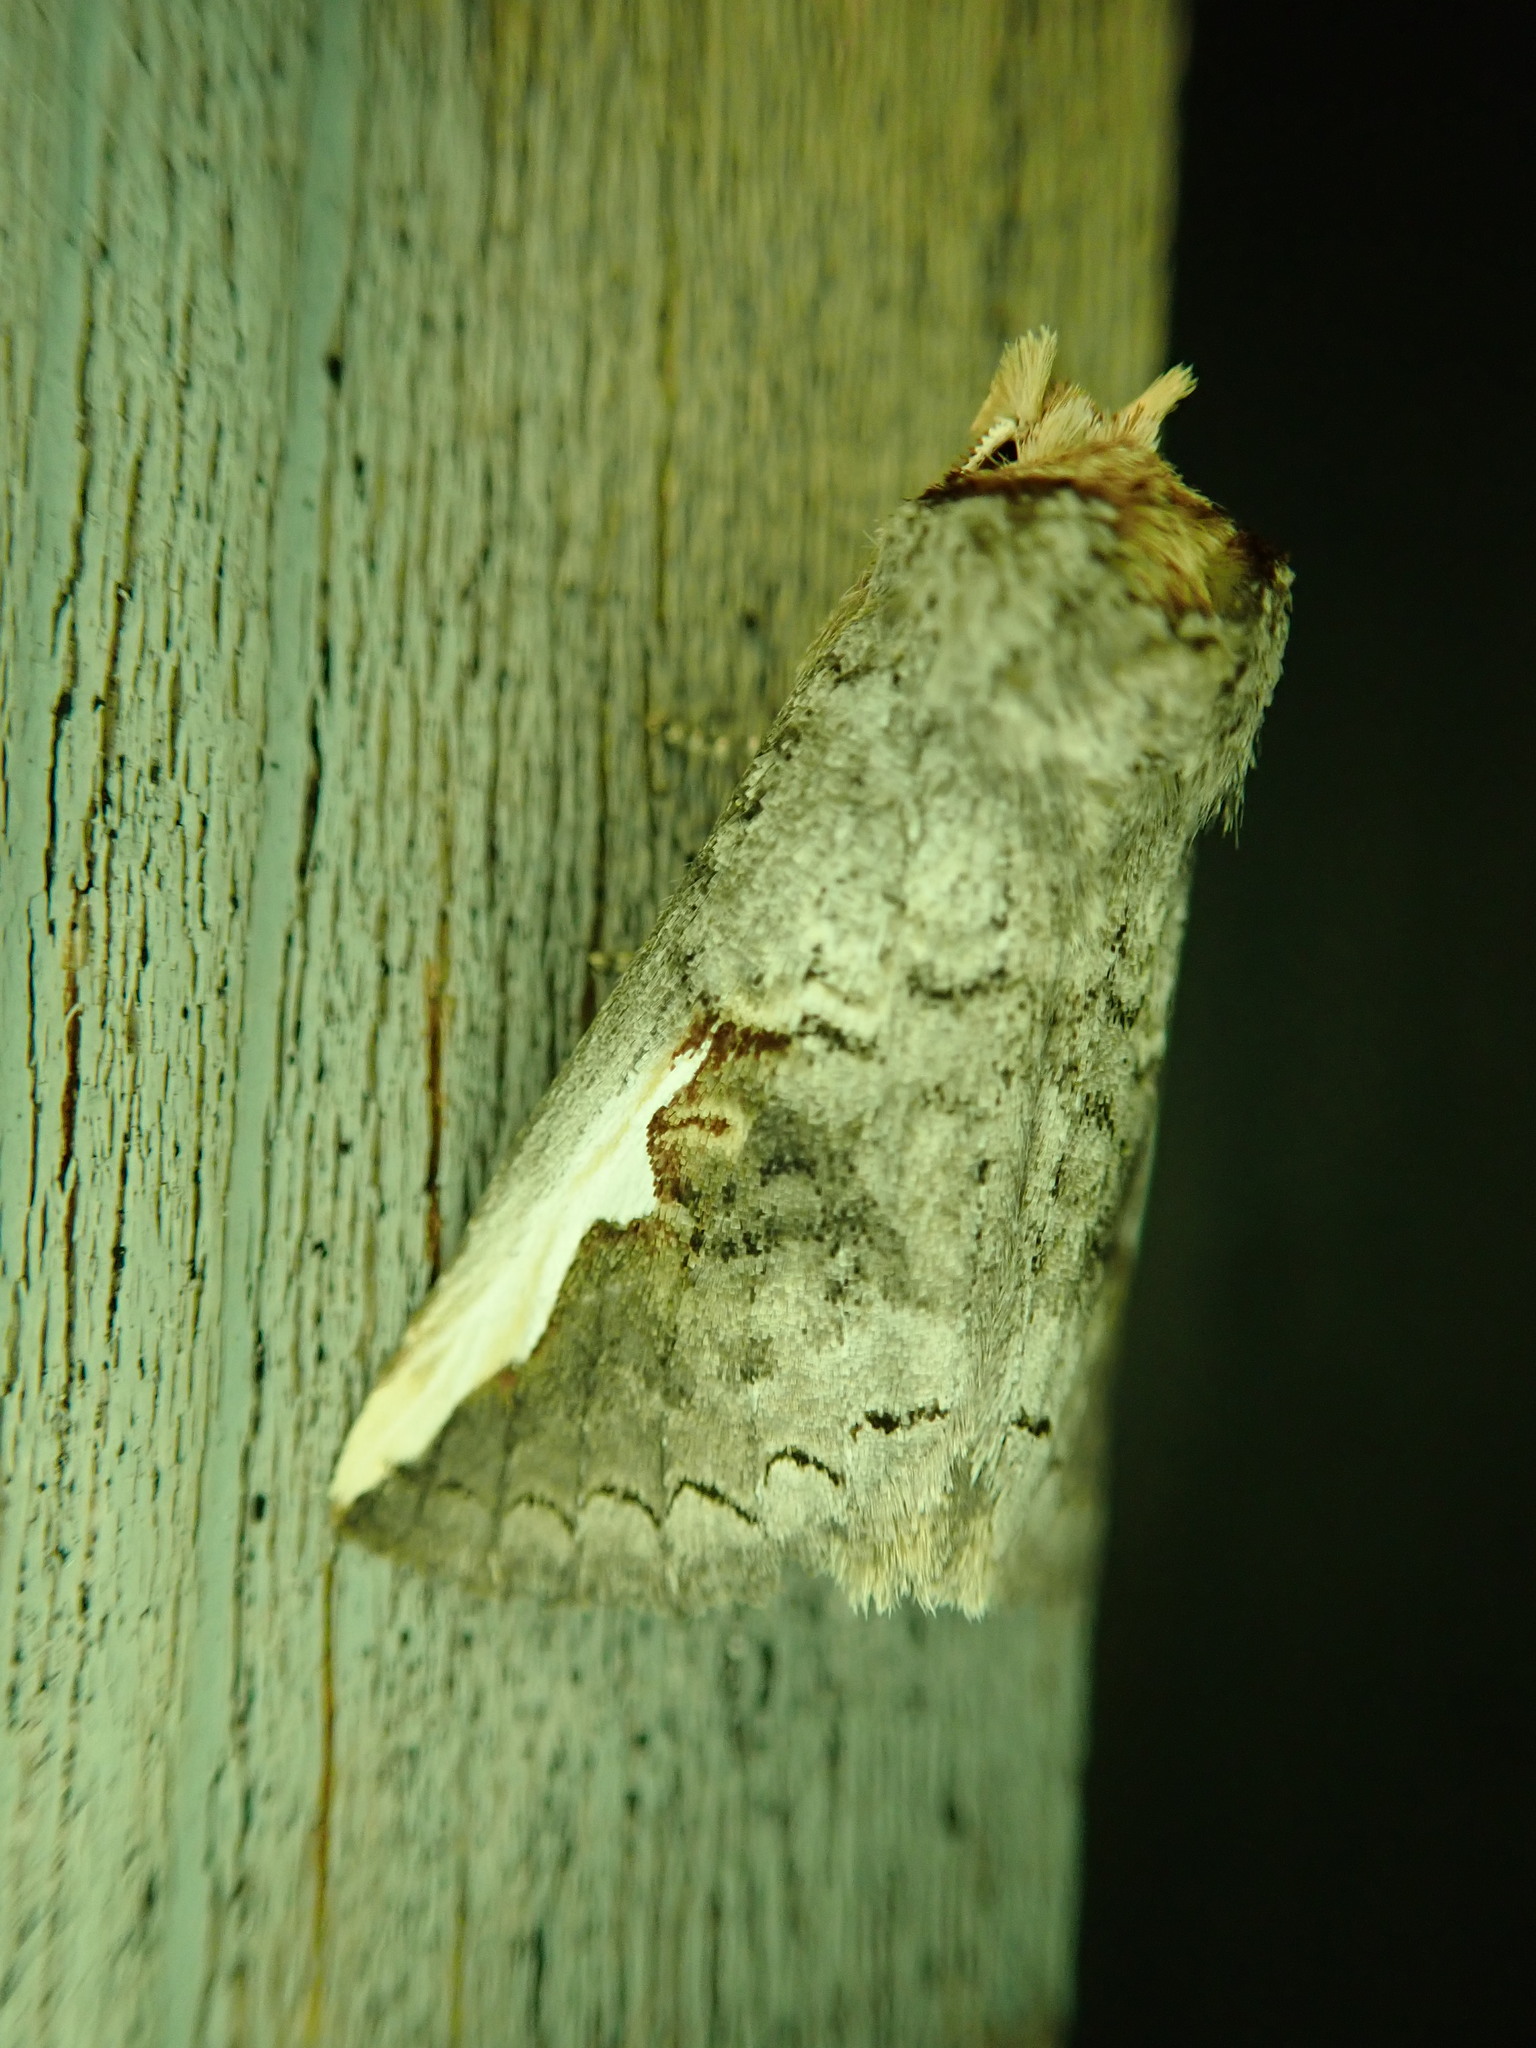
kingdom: Animalia
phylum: Arthropoda
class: Insecta
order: Lepidoptera
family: Notodontidae
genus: Symmerista
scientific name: Symmerista
